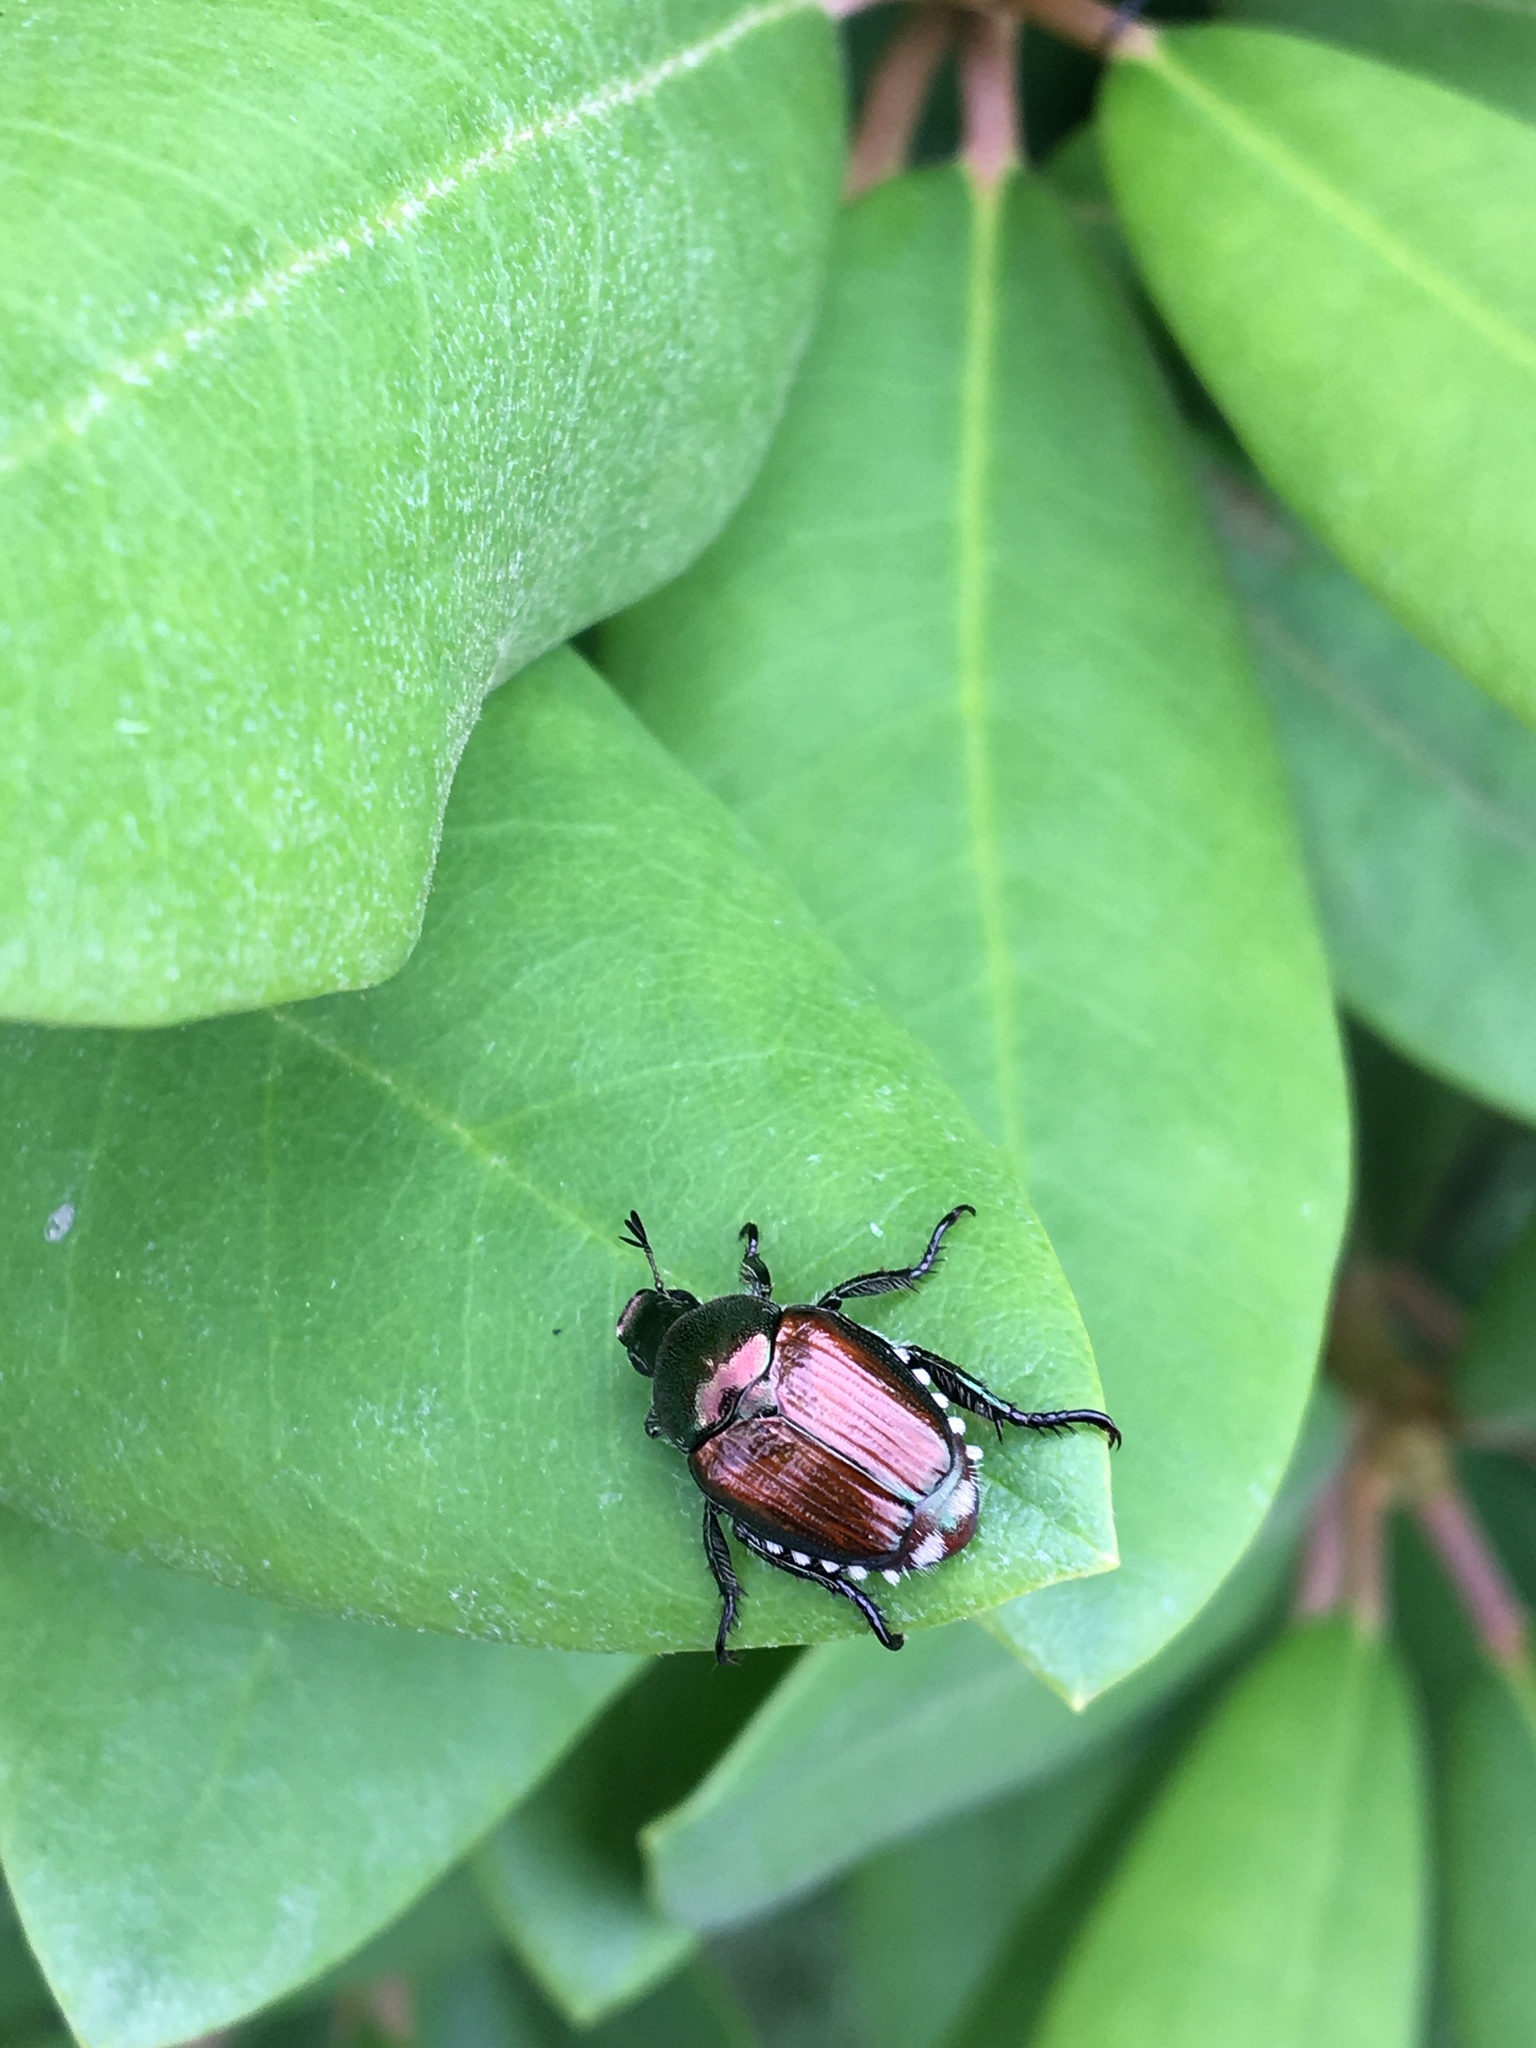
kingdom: Animalia
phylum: Arthropoda
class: Insecta
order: Coleoptera
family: Scarabaeidae
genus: Popillia
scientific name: Popillia japonica
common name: Japanese beetle
